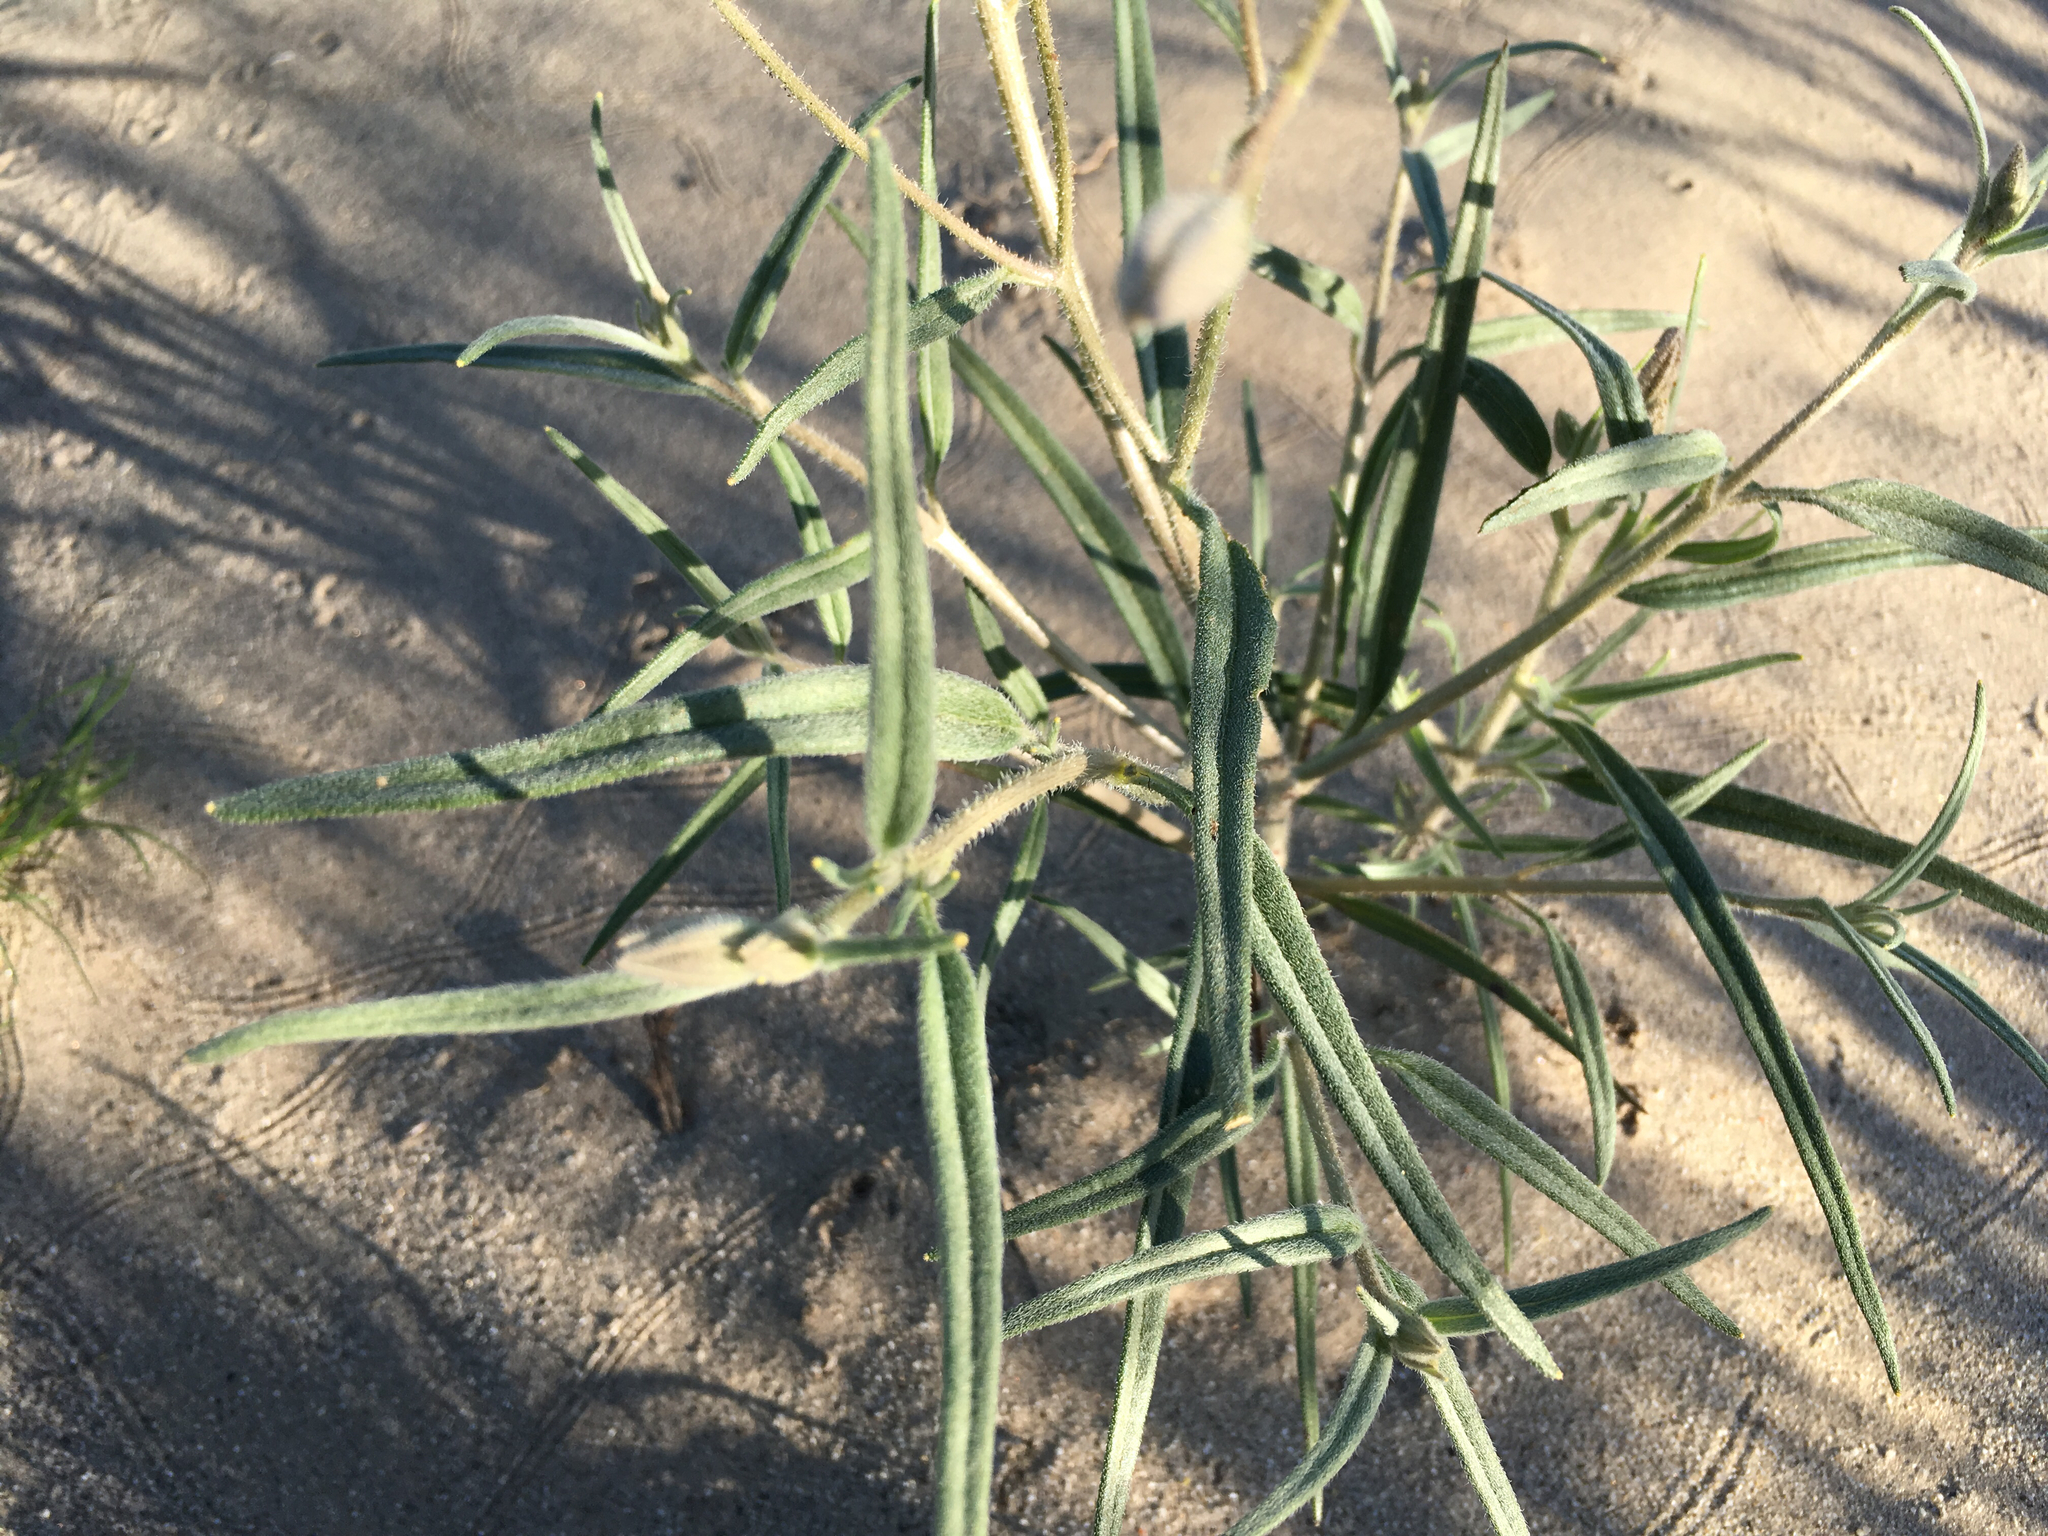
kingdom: Plantae
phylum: Tracheophyta
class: Magnoliopsida
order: Asterales
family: Asteraceae
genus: Palafoxia
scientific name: Palafoxia arida
